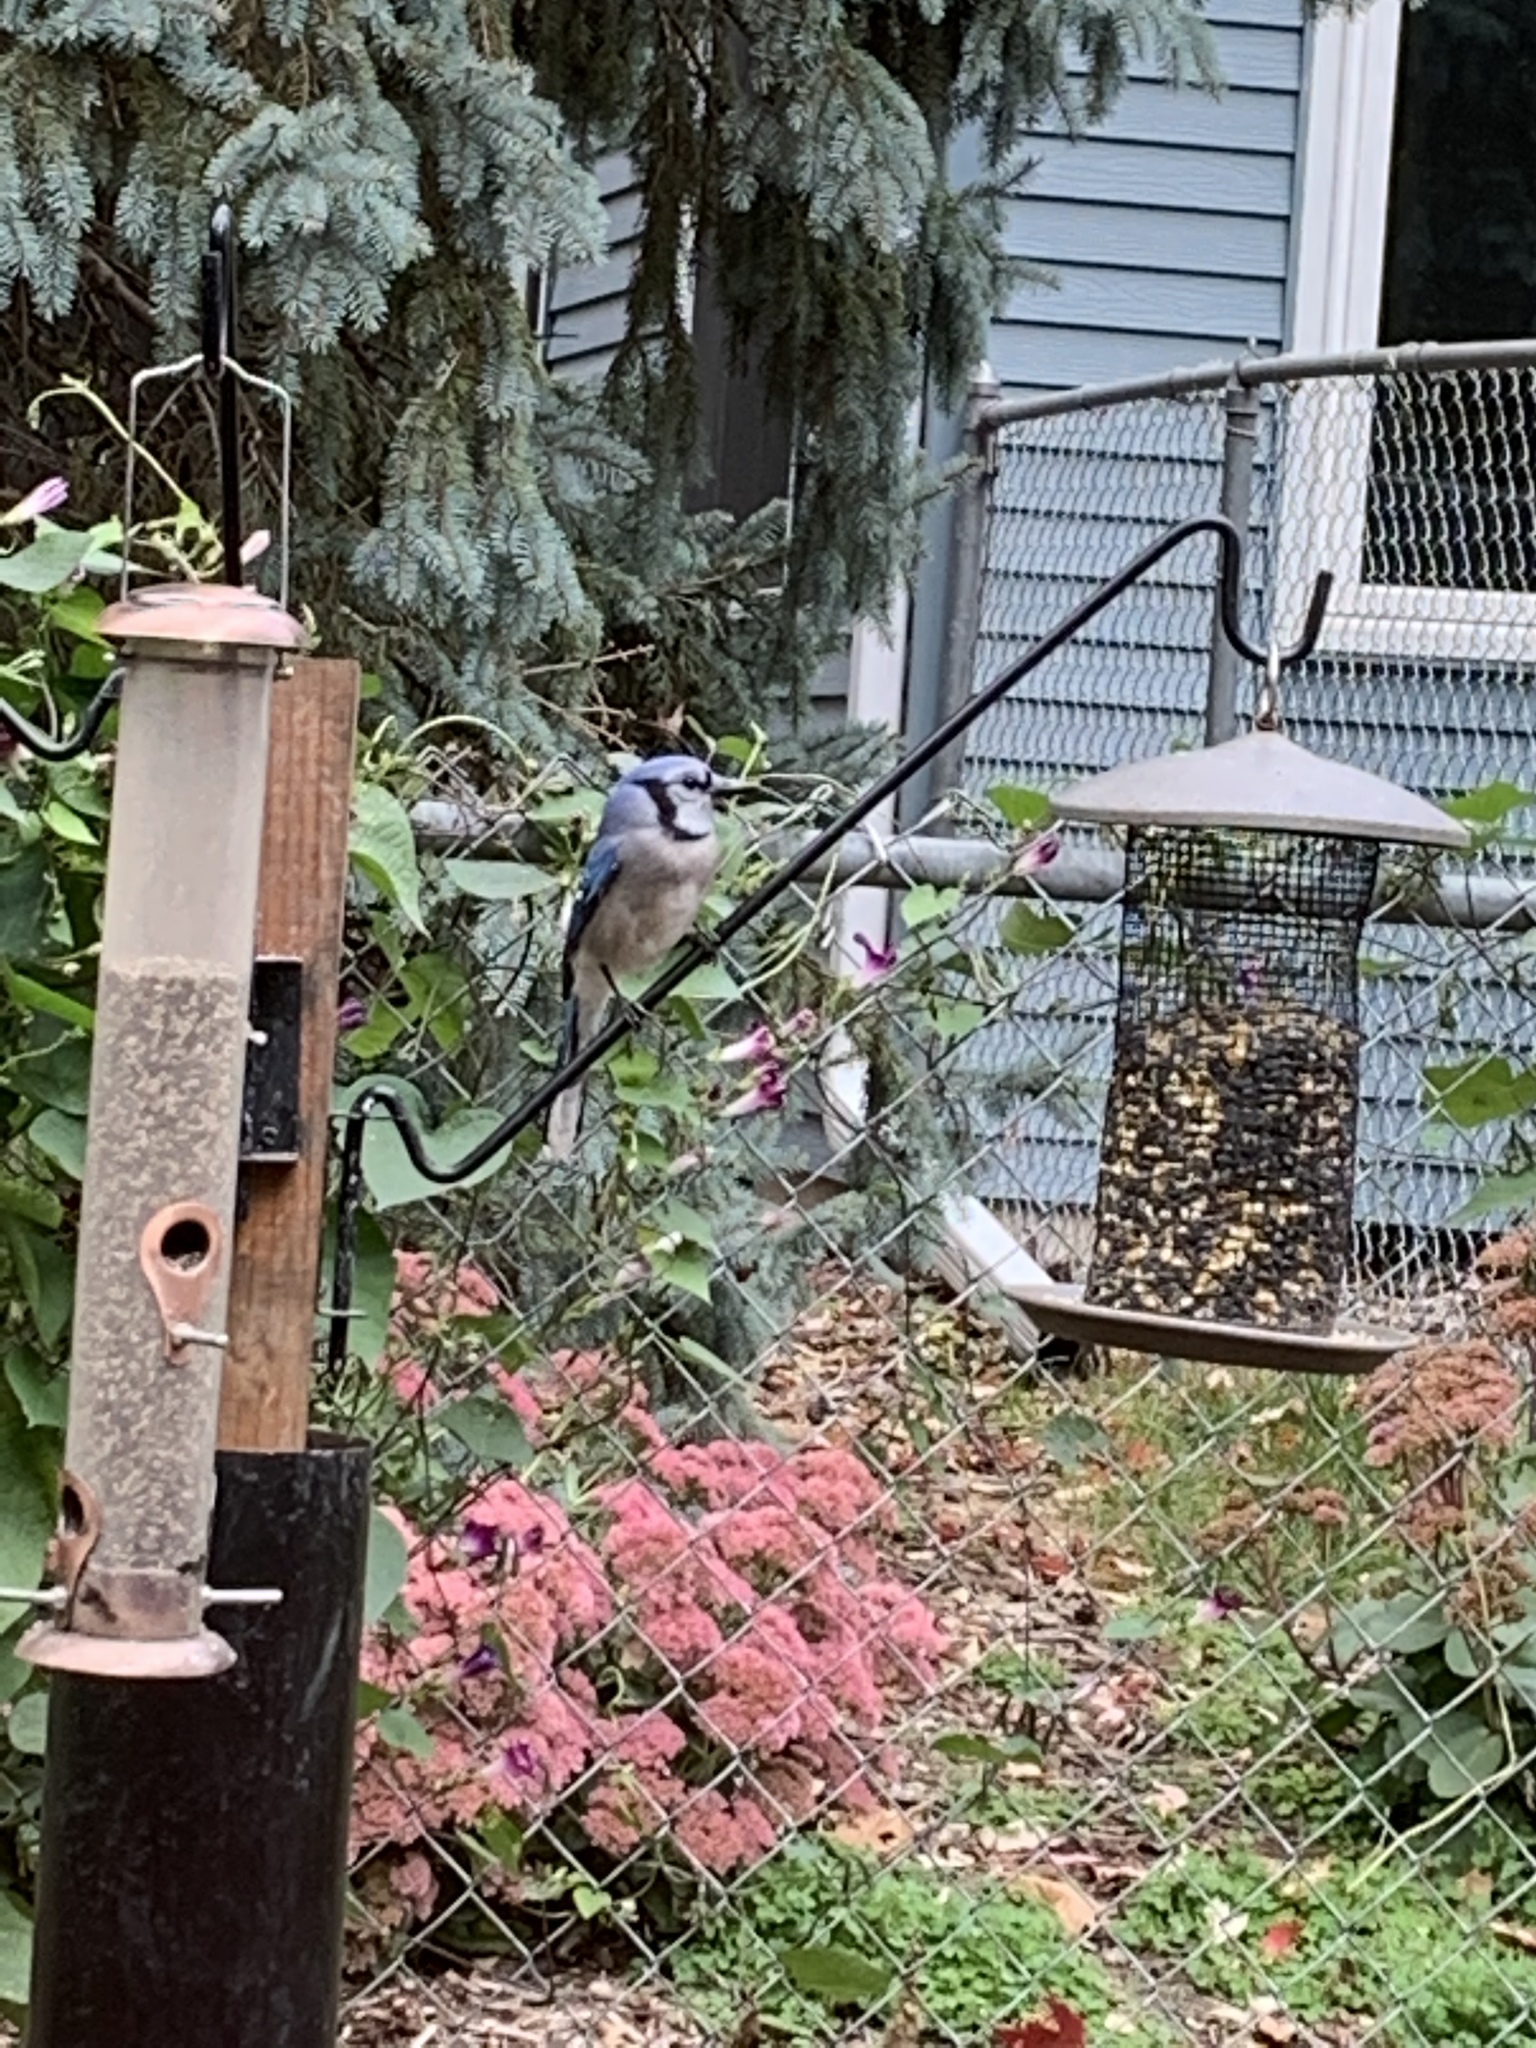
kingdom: Animalia
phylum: Chordata
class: Aves
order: Passeriformes
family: Corvidae
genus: Cyanocitta
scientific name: Cyanocitta cristata
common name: Blue jay
